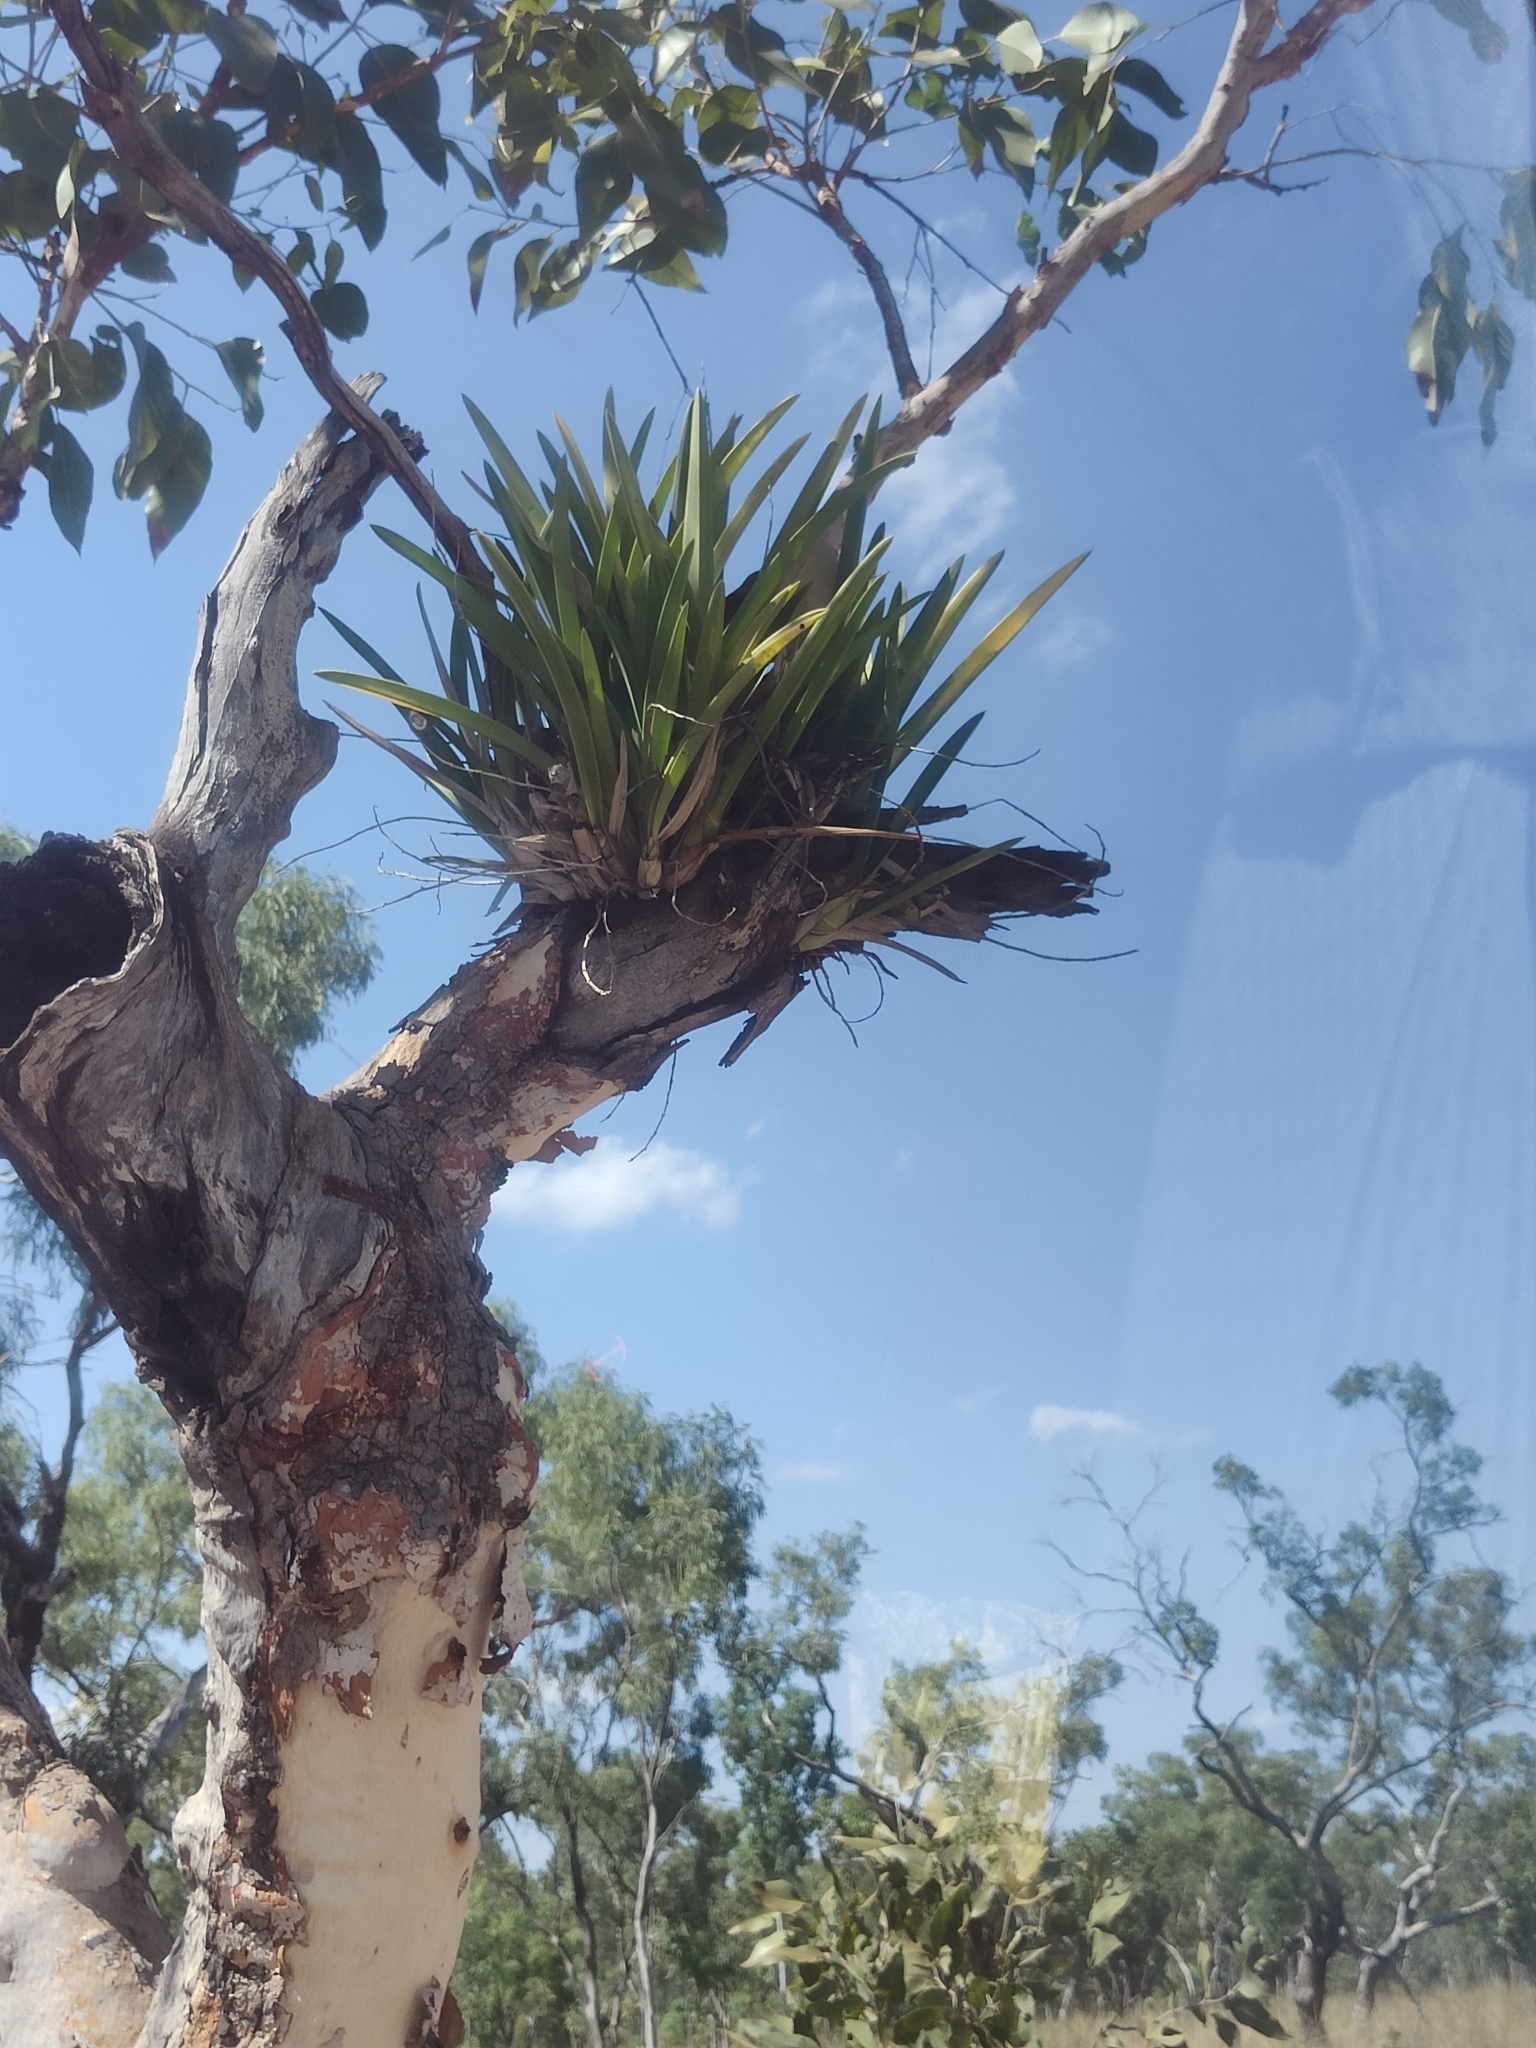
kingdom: Plantae
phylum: Tracheophyta
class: Liliopsida
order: Asparagales
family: Orchidaceae
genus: Cymbidium
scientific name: Cymbidium canaliculatum
